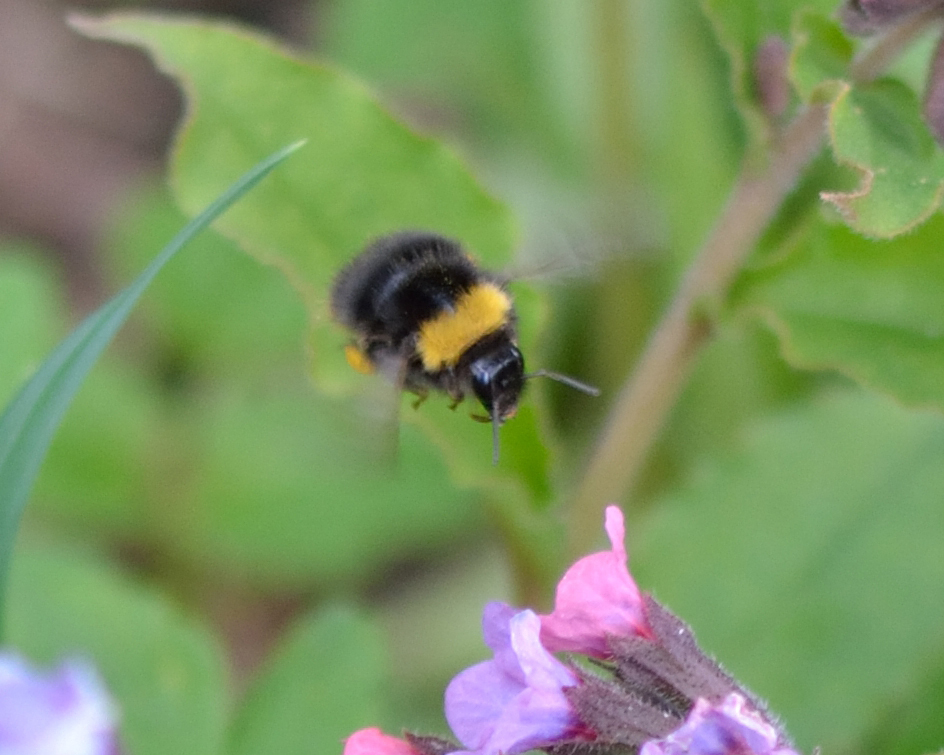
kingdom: Animalia
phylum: Arthropoda
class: Insecta
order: Hymenoptera
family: Apidae
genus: Bombus
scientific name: Bombus pratorum
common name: Early humble-bee
